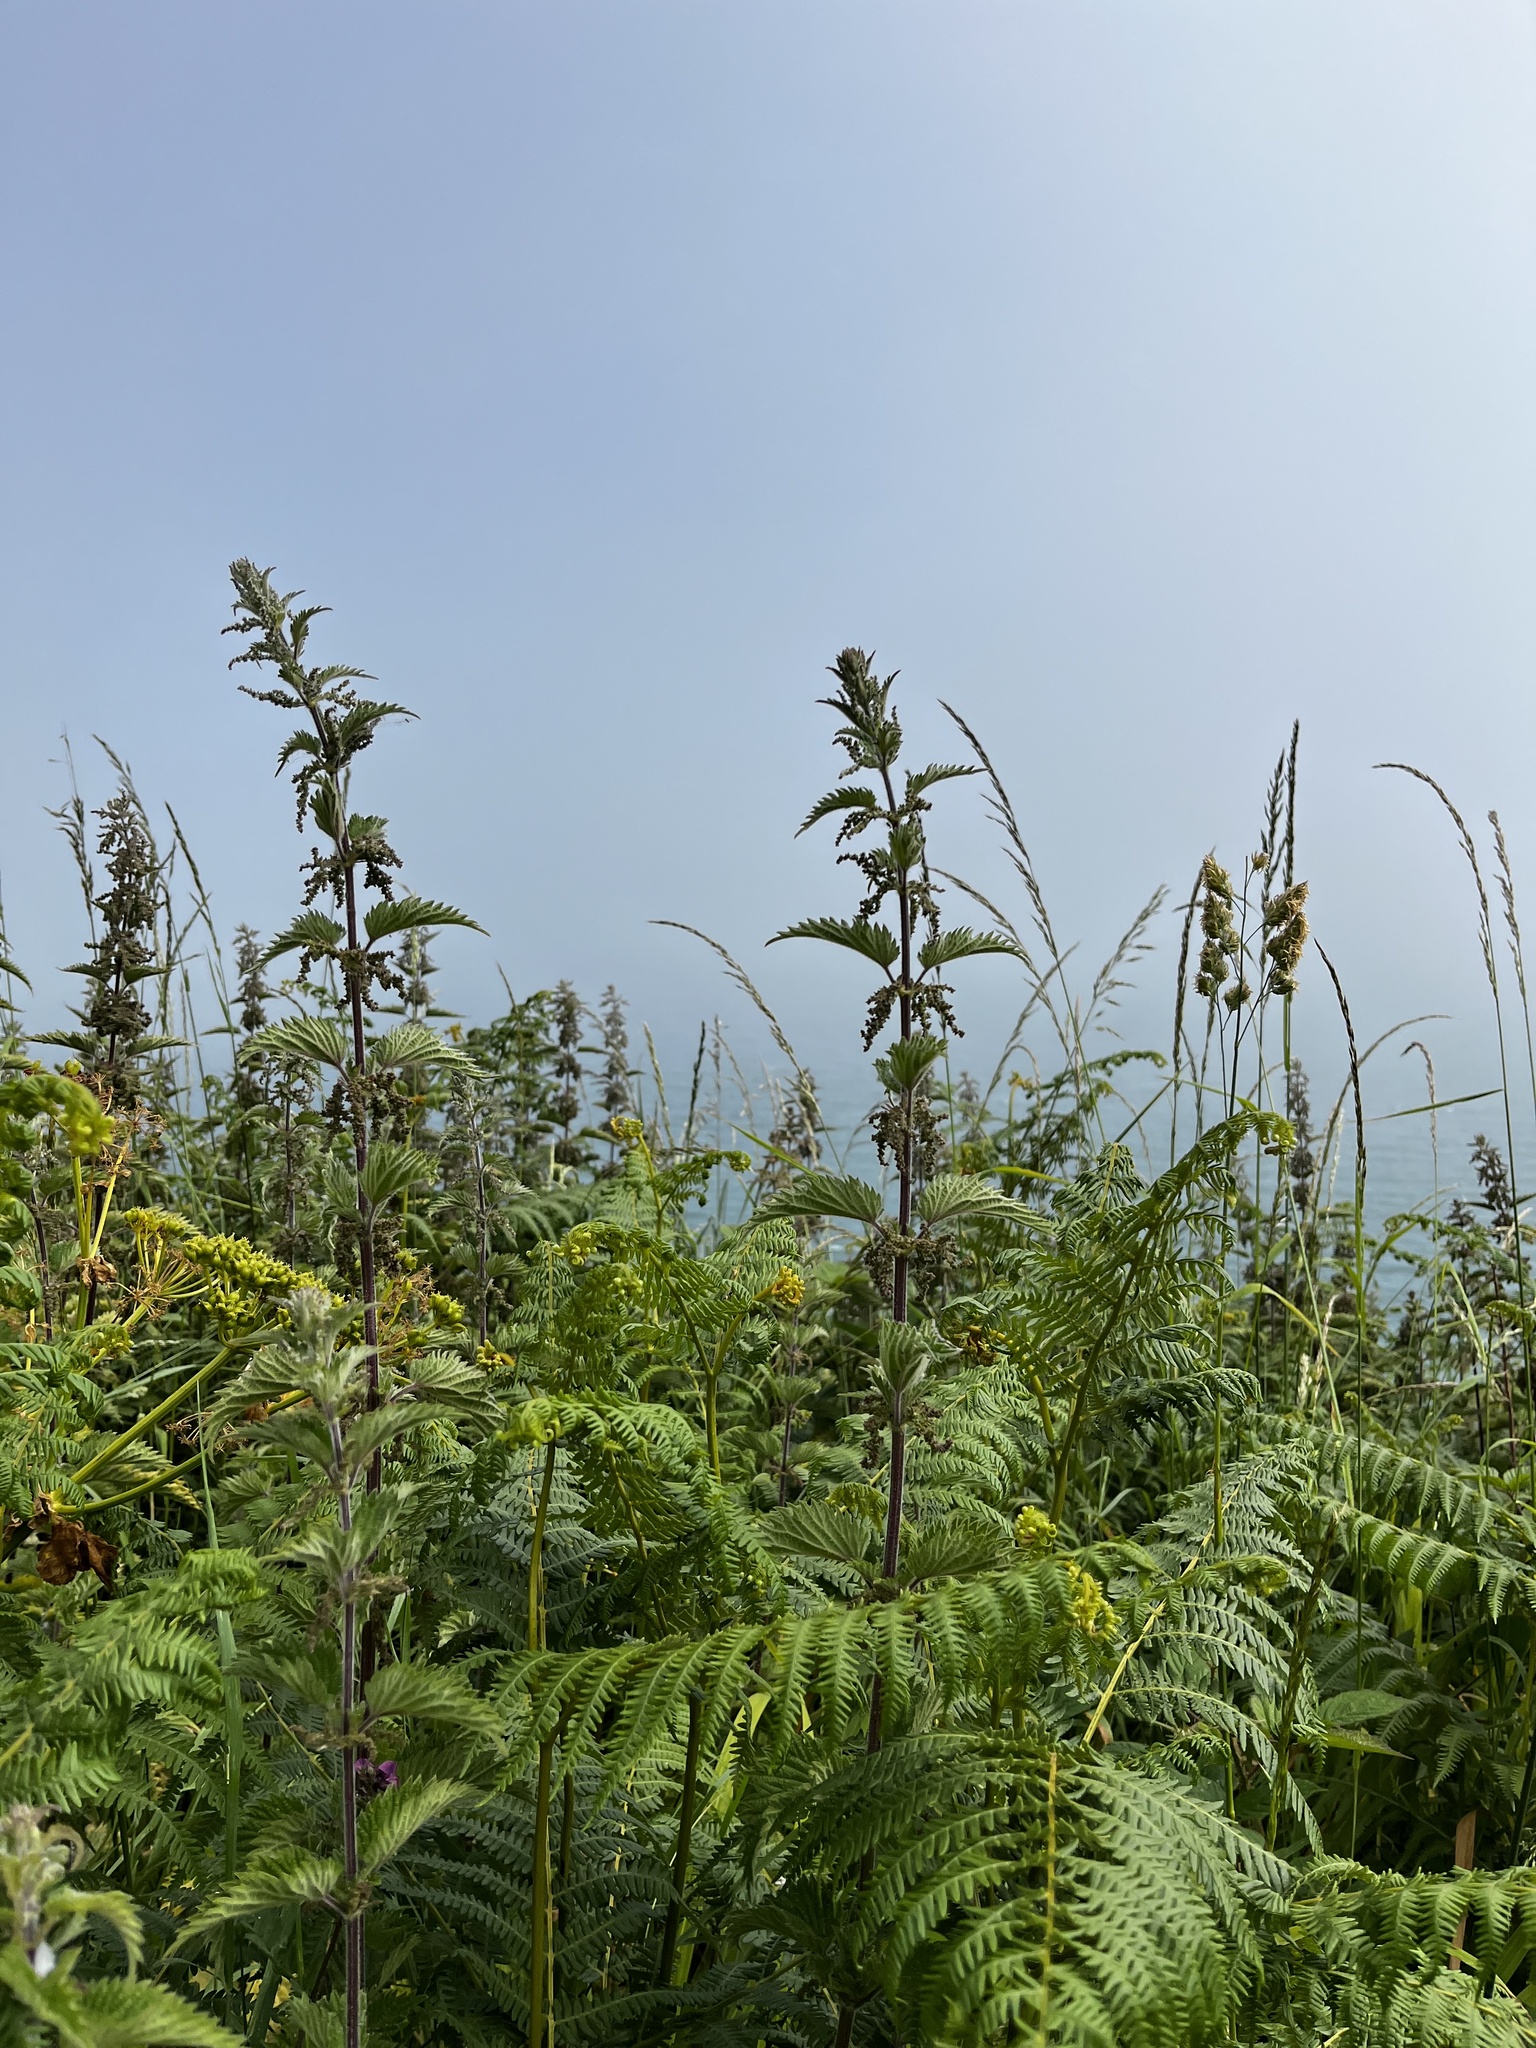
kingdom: Plantae
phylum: Tracheophyta
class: Magnoliopsida
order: Rosales
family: Urticaceae
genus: Urtica
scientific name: Urtica dioica
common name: Common nettle
